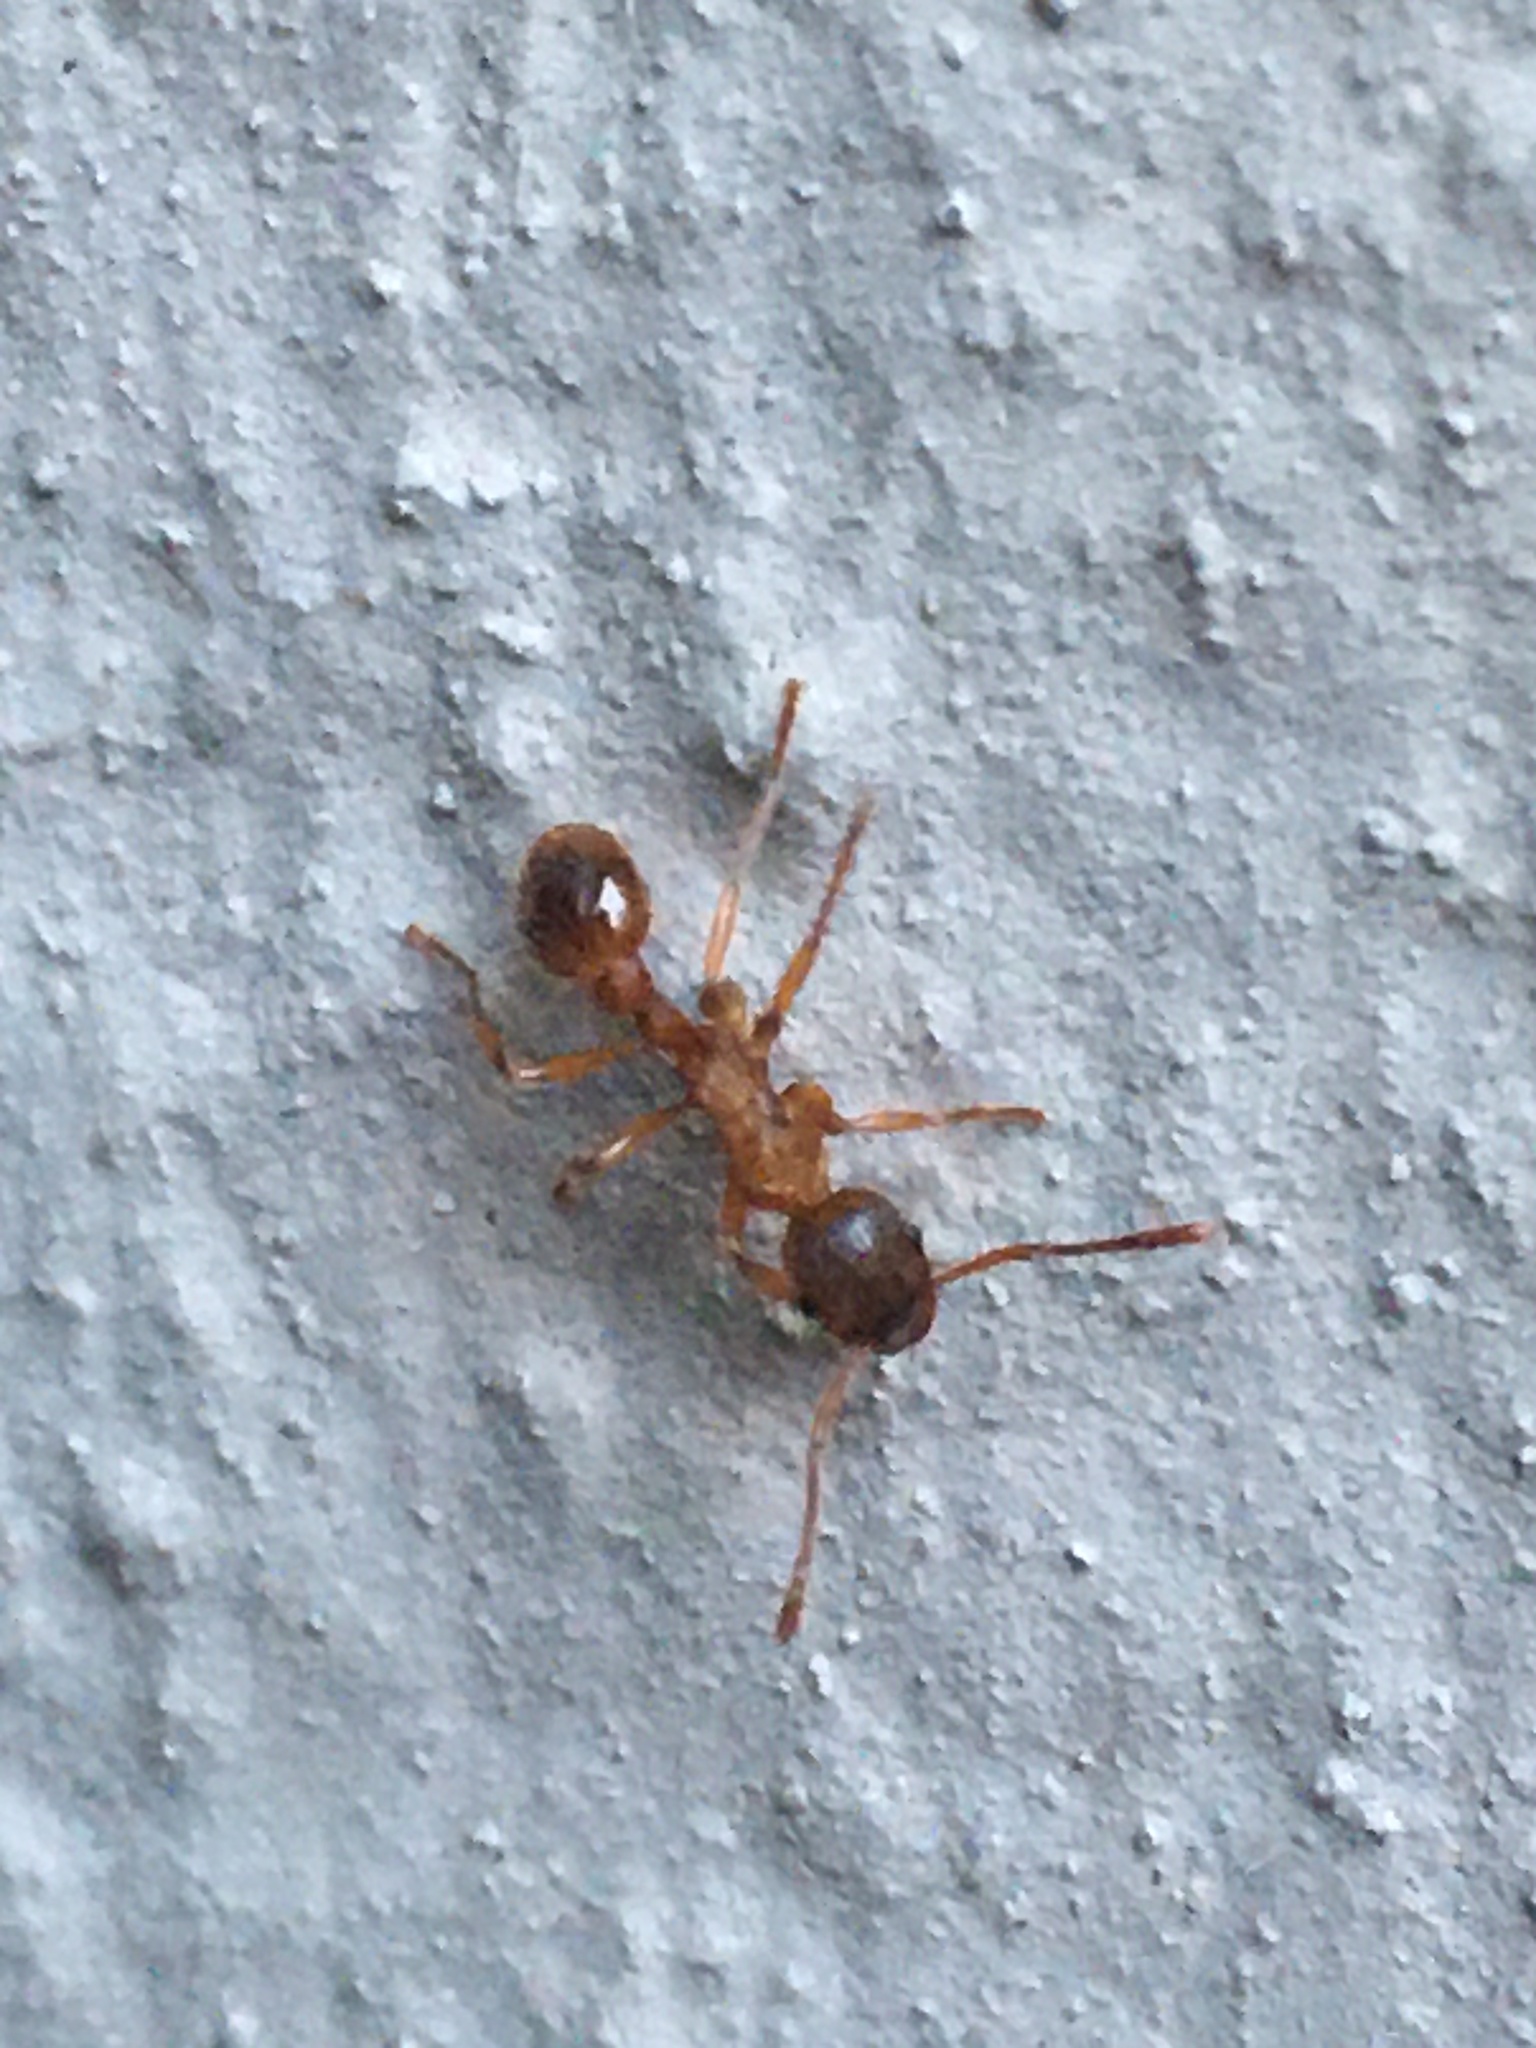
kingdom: Animalia
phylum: Arthropoda
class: Insecta
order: Hymenoptera
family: Formicidae
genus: Myrmica
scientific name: Myrmica rubra
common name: European fire ant
